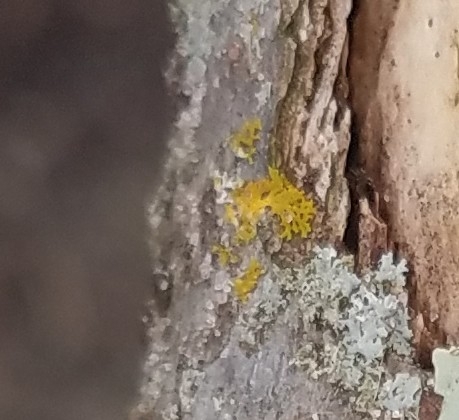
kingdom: Fungi
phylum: Ascomycota
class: Candelariomycetes
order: Candelariales
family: Candelariaceae
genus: Candelaria
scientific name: Candelaria concolor
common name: Candleflame lichen
